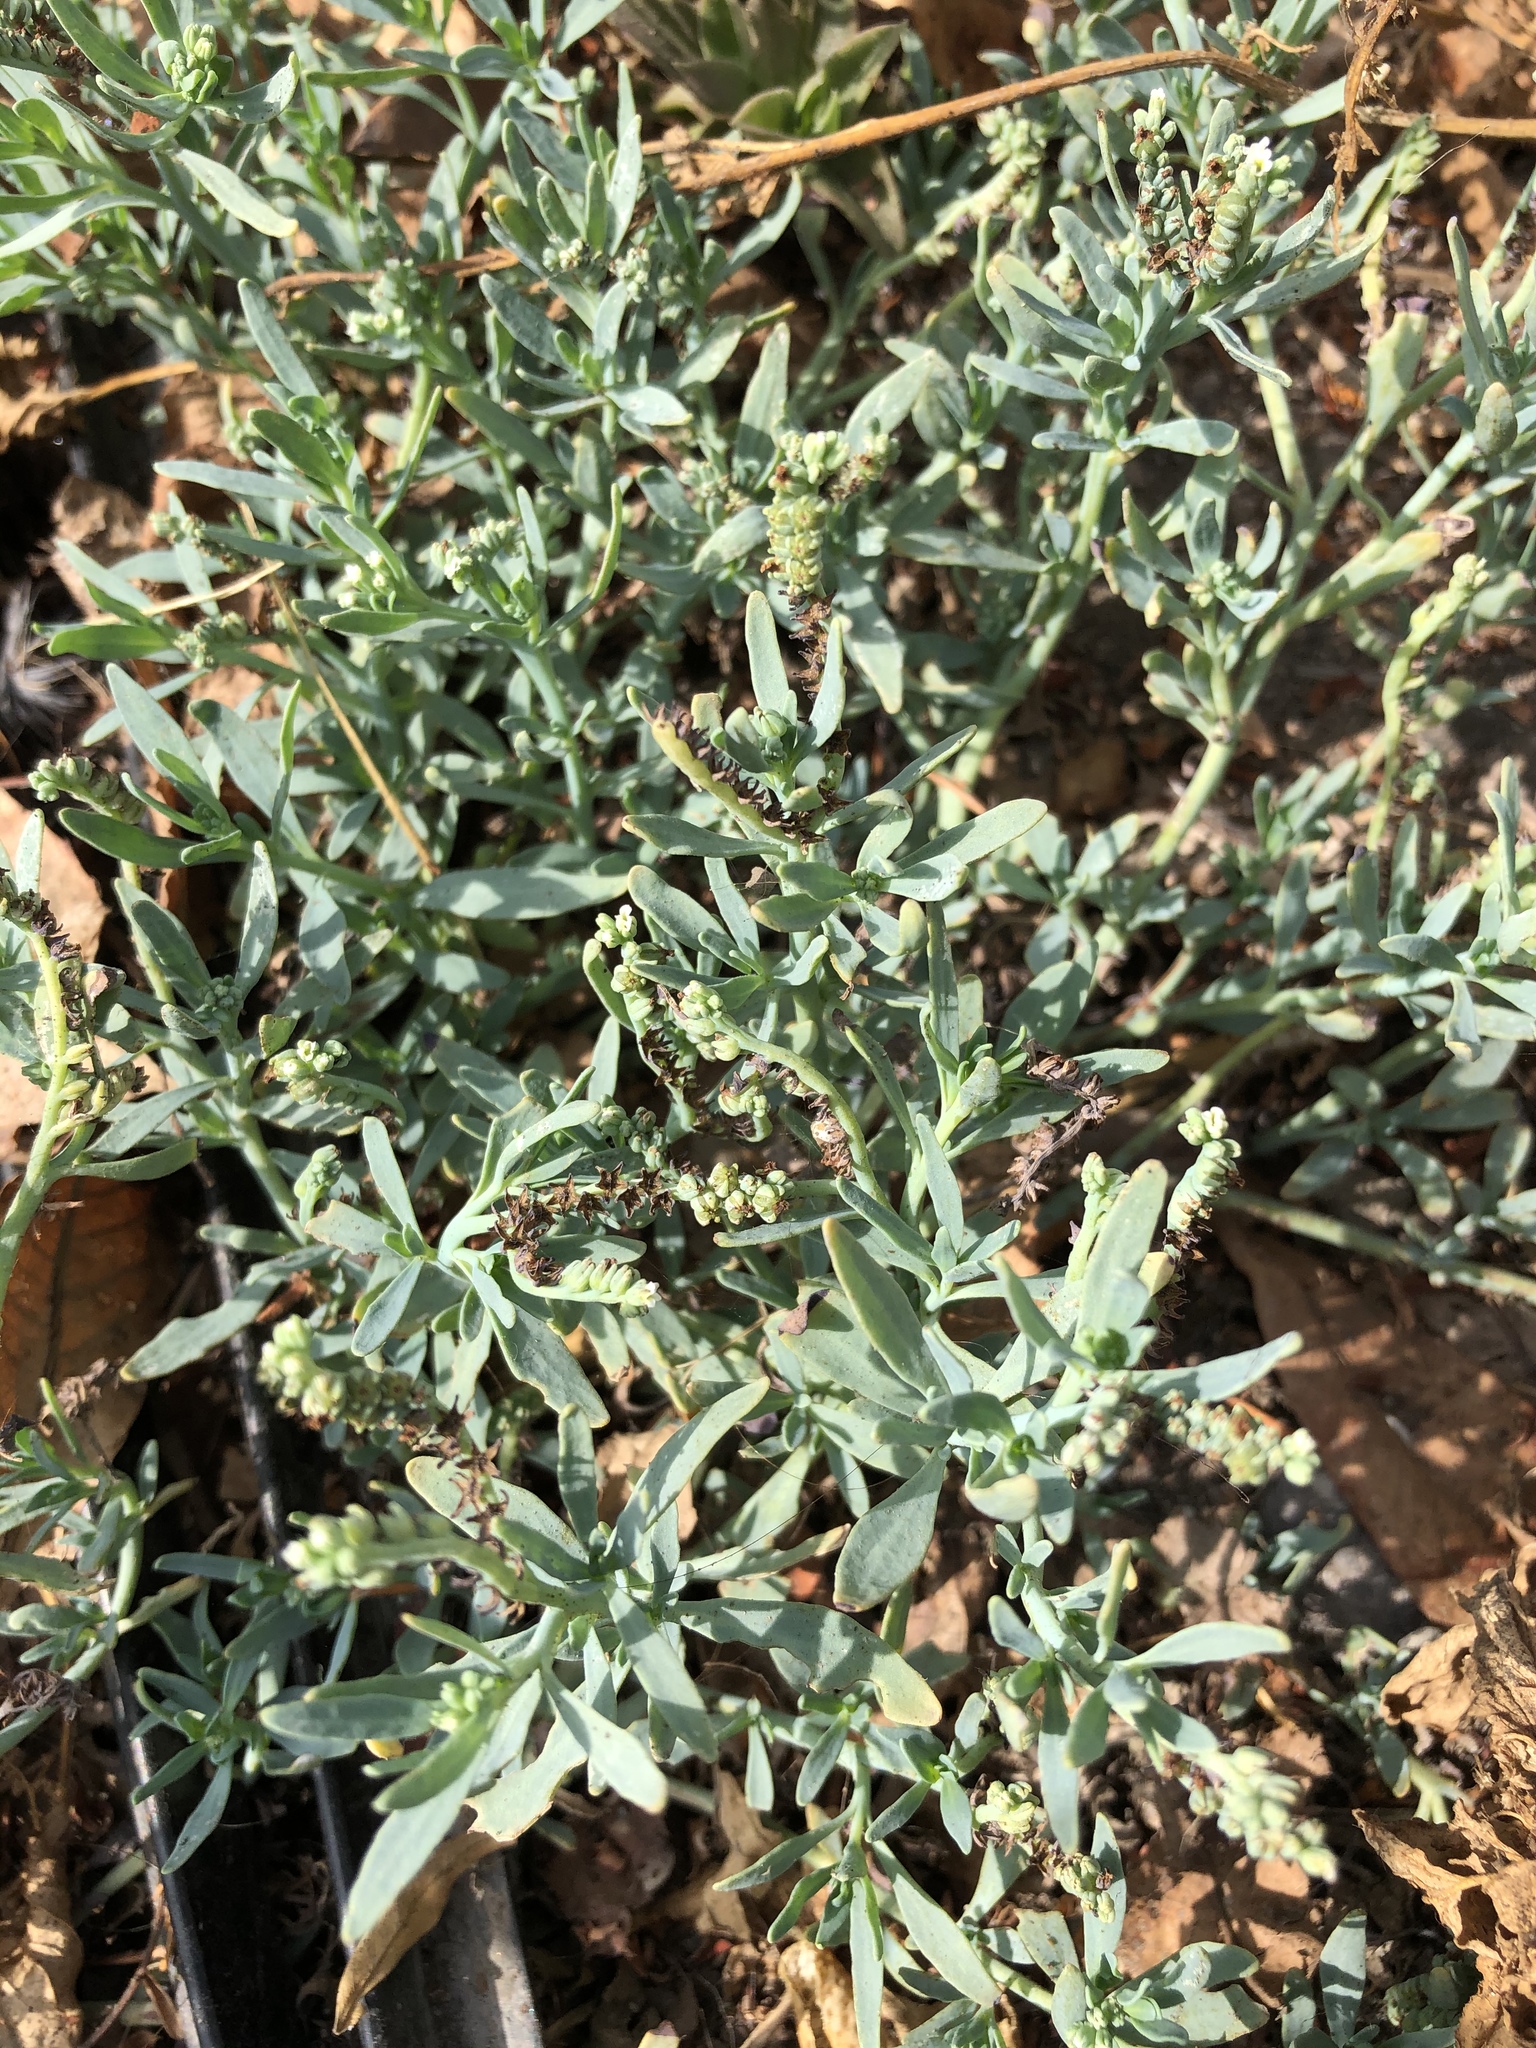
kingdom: Plantae
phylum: Tracheophyta
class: Magnoliopsida
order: Boraginales
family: Heliotropiaceae
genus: Heliotropium
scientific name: Heliotropium curassavicum
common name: Seaside heliotrope
